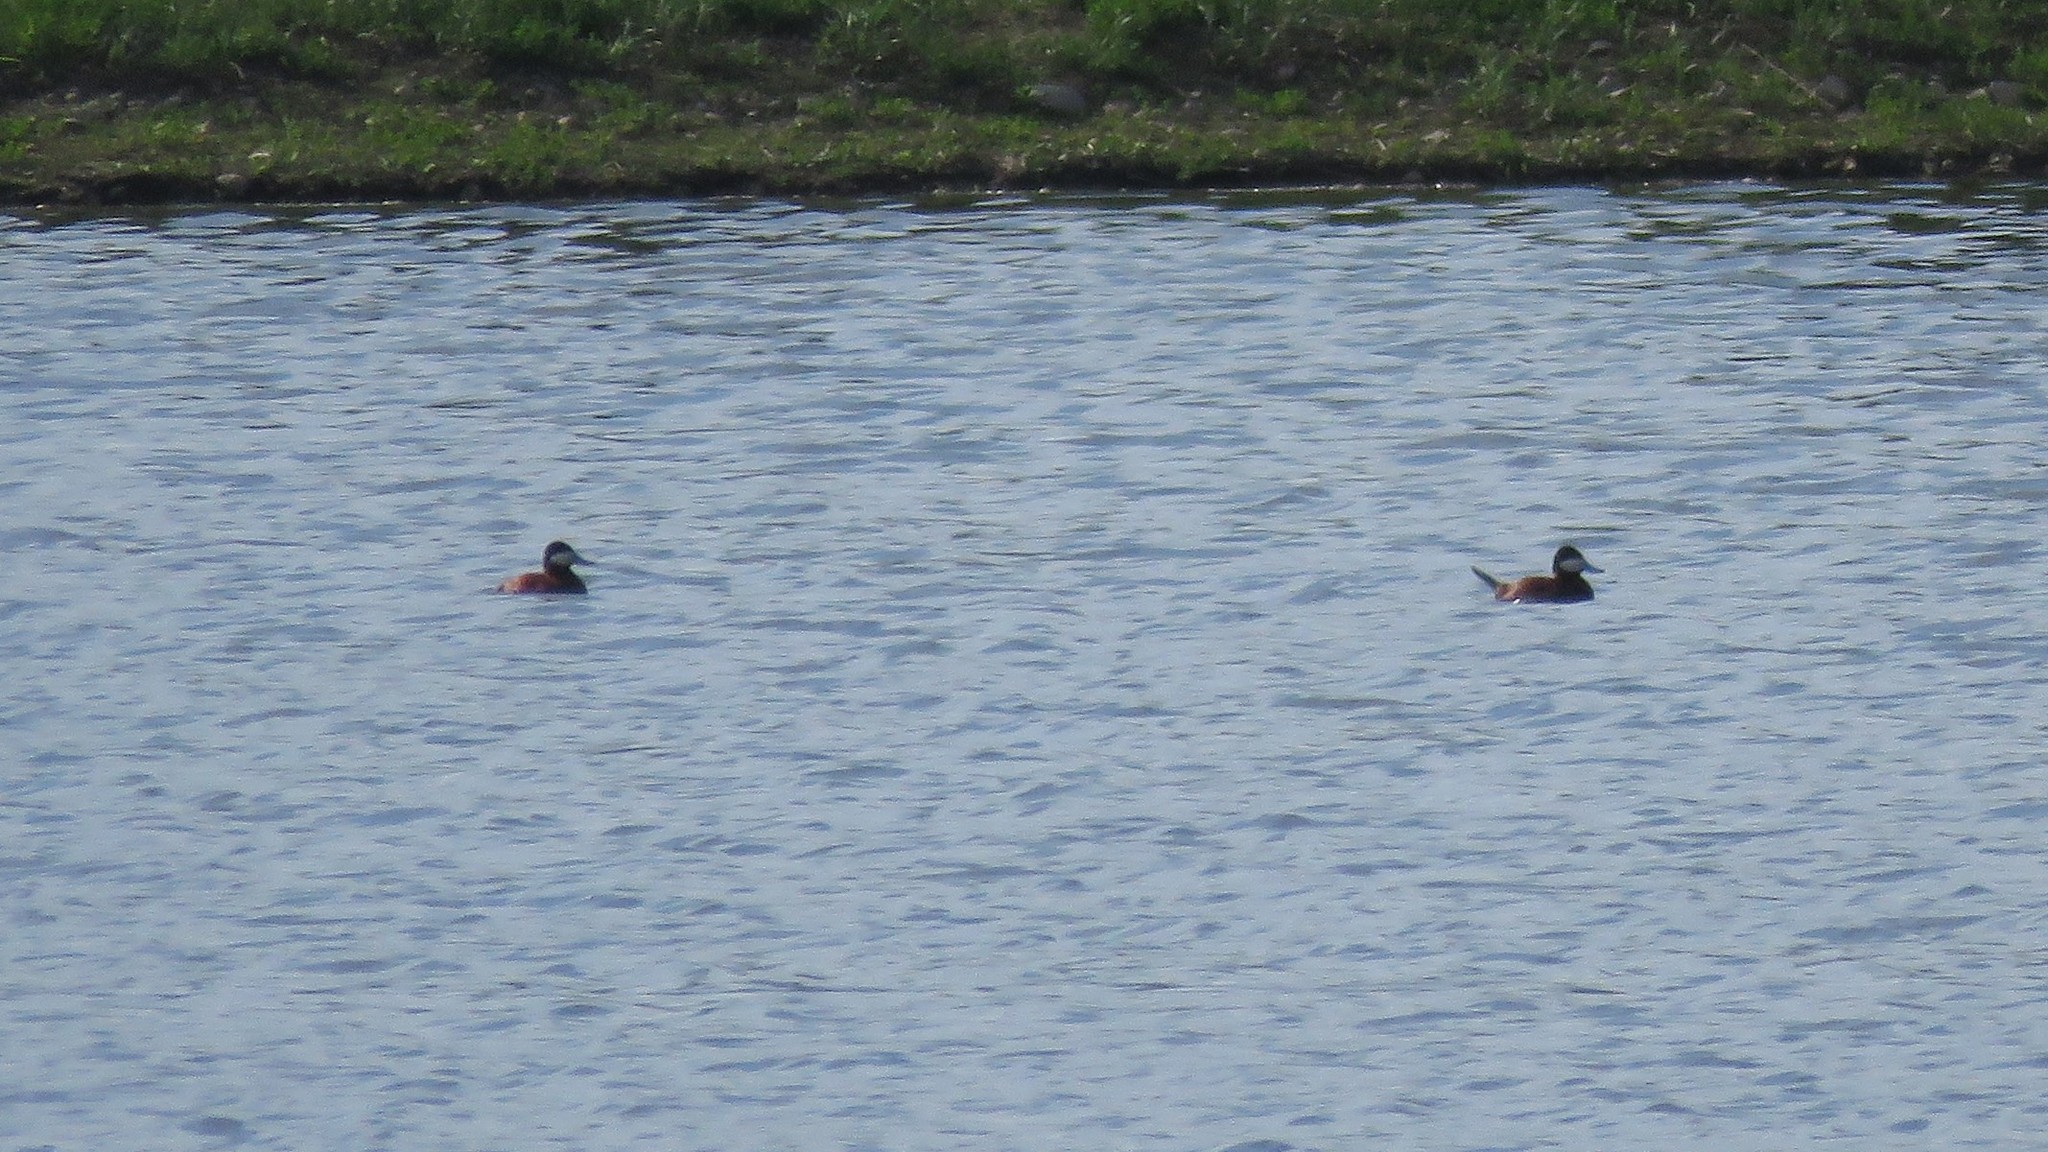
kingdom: Animalia
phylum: Chordata
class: Aves
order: Anseriformes
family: Anatidae
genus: Oxyura
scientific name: Oxyura jamaicensis
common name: Ruddy duck
